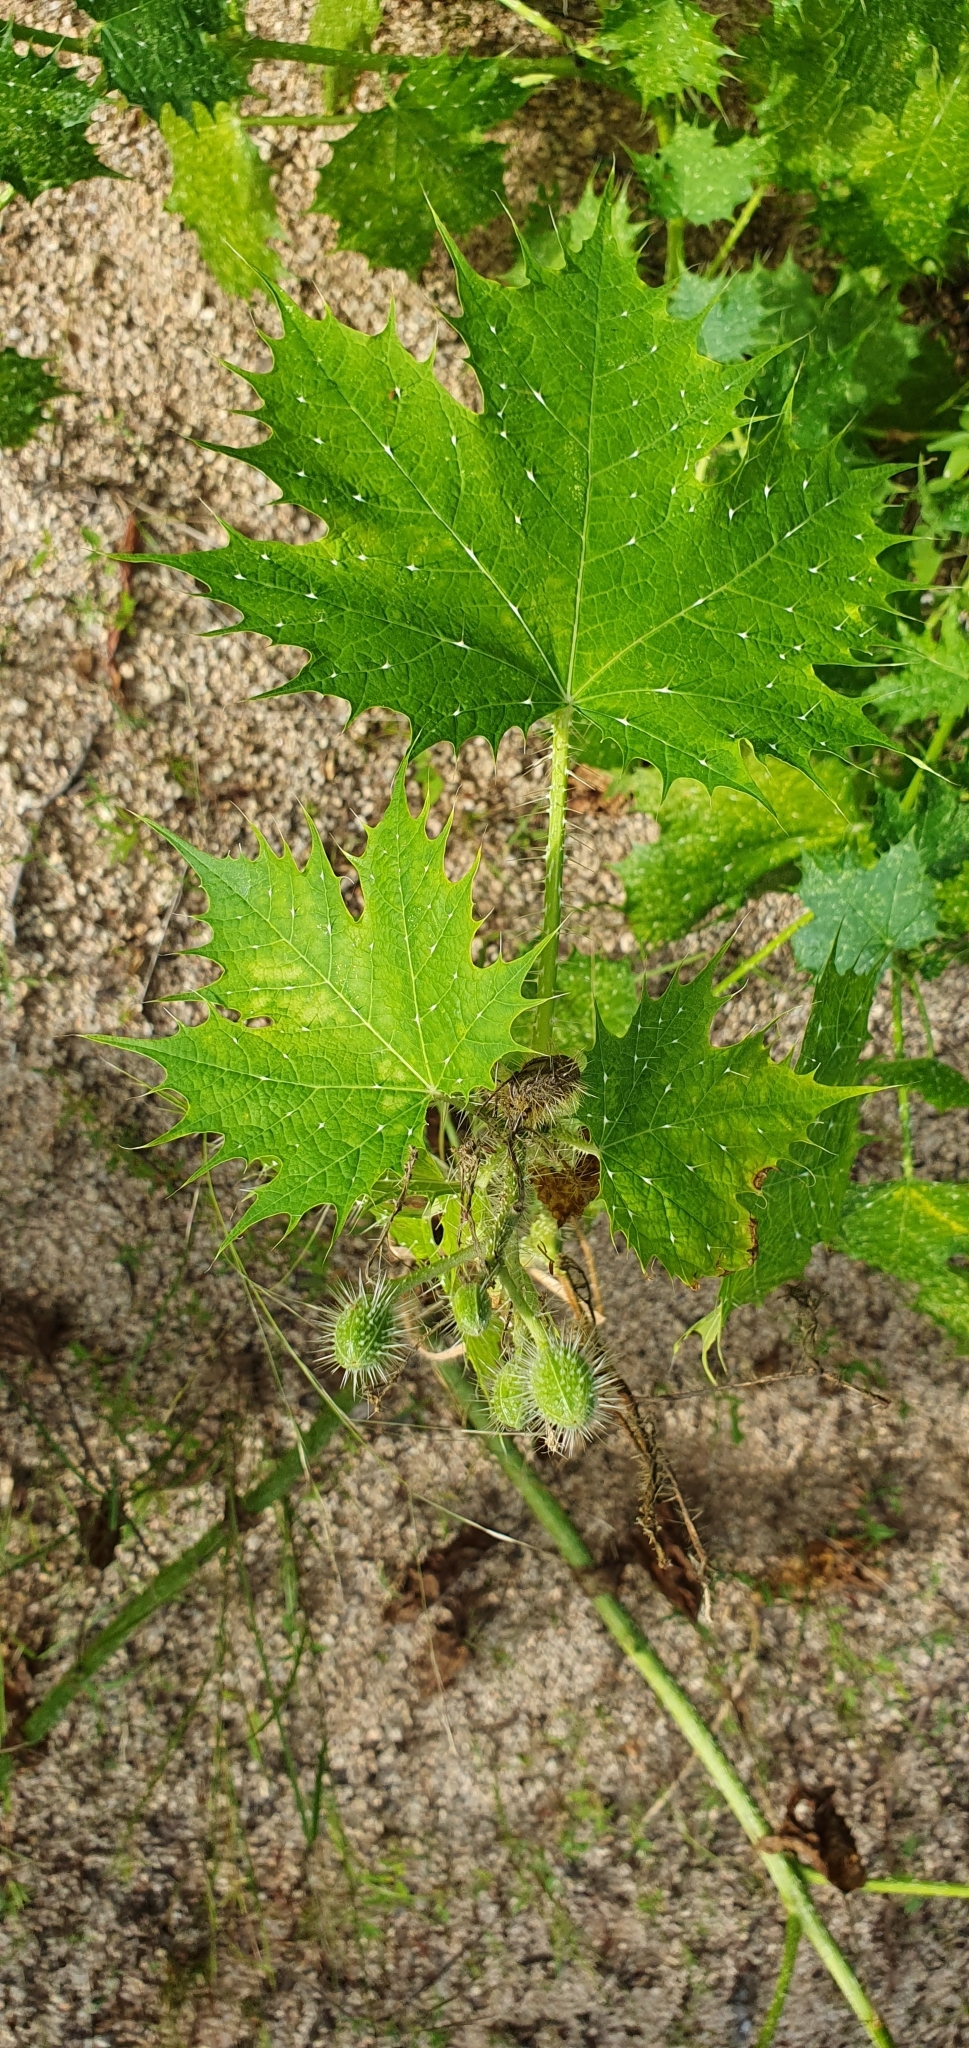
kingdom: Plantae
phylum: Tracheophyta
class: Magnoliopsida
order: Malpighiales
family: Euphorbiaceae
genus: Cnidoscolus
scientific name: Cnidoscolus maculatus
